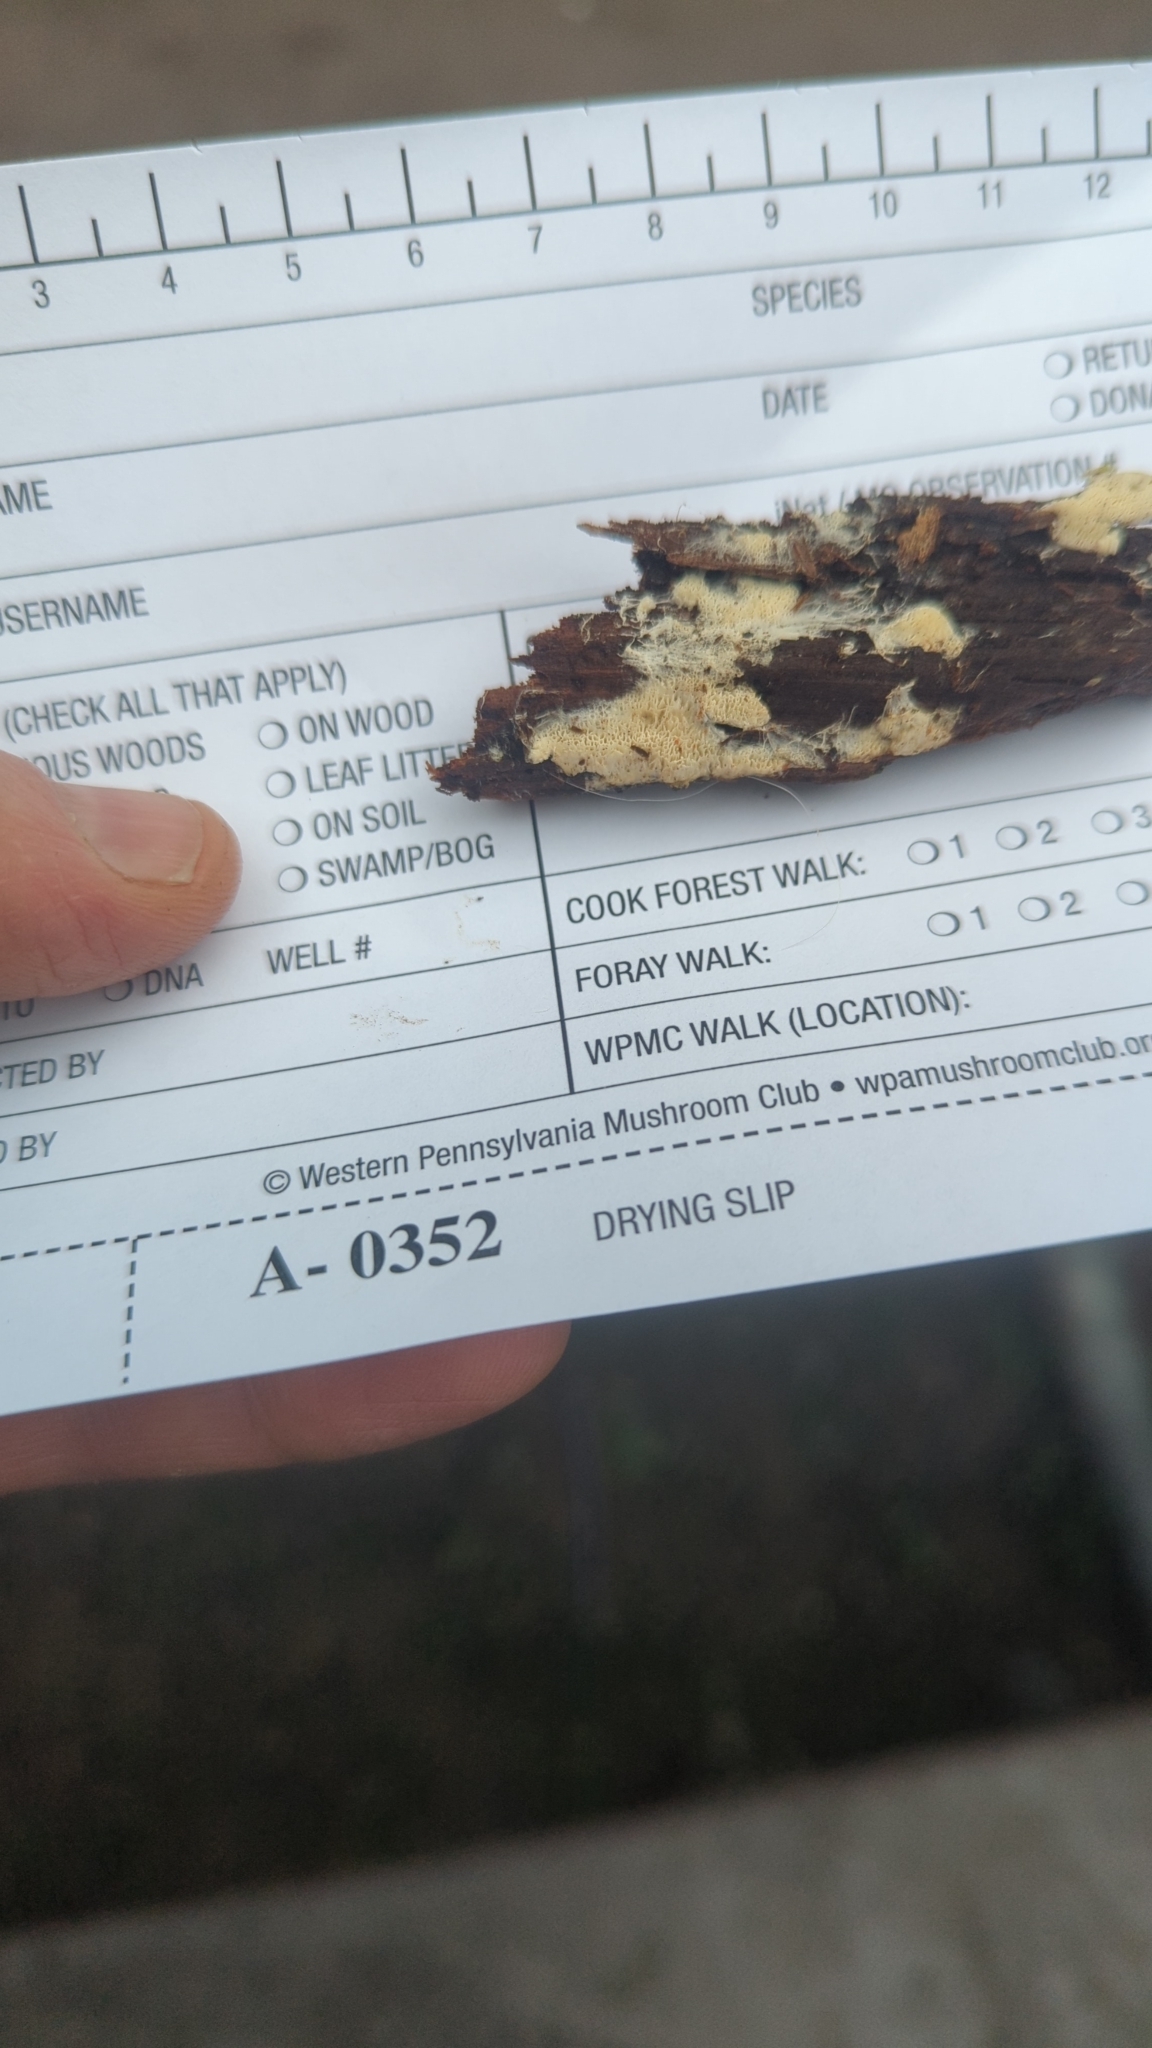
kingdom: Fungi
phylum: Basidiomycota
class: Agaricomycetes
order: Trechisporales
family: Sistotremataceae
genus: Trechispora
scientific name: Trechispora mollusca
